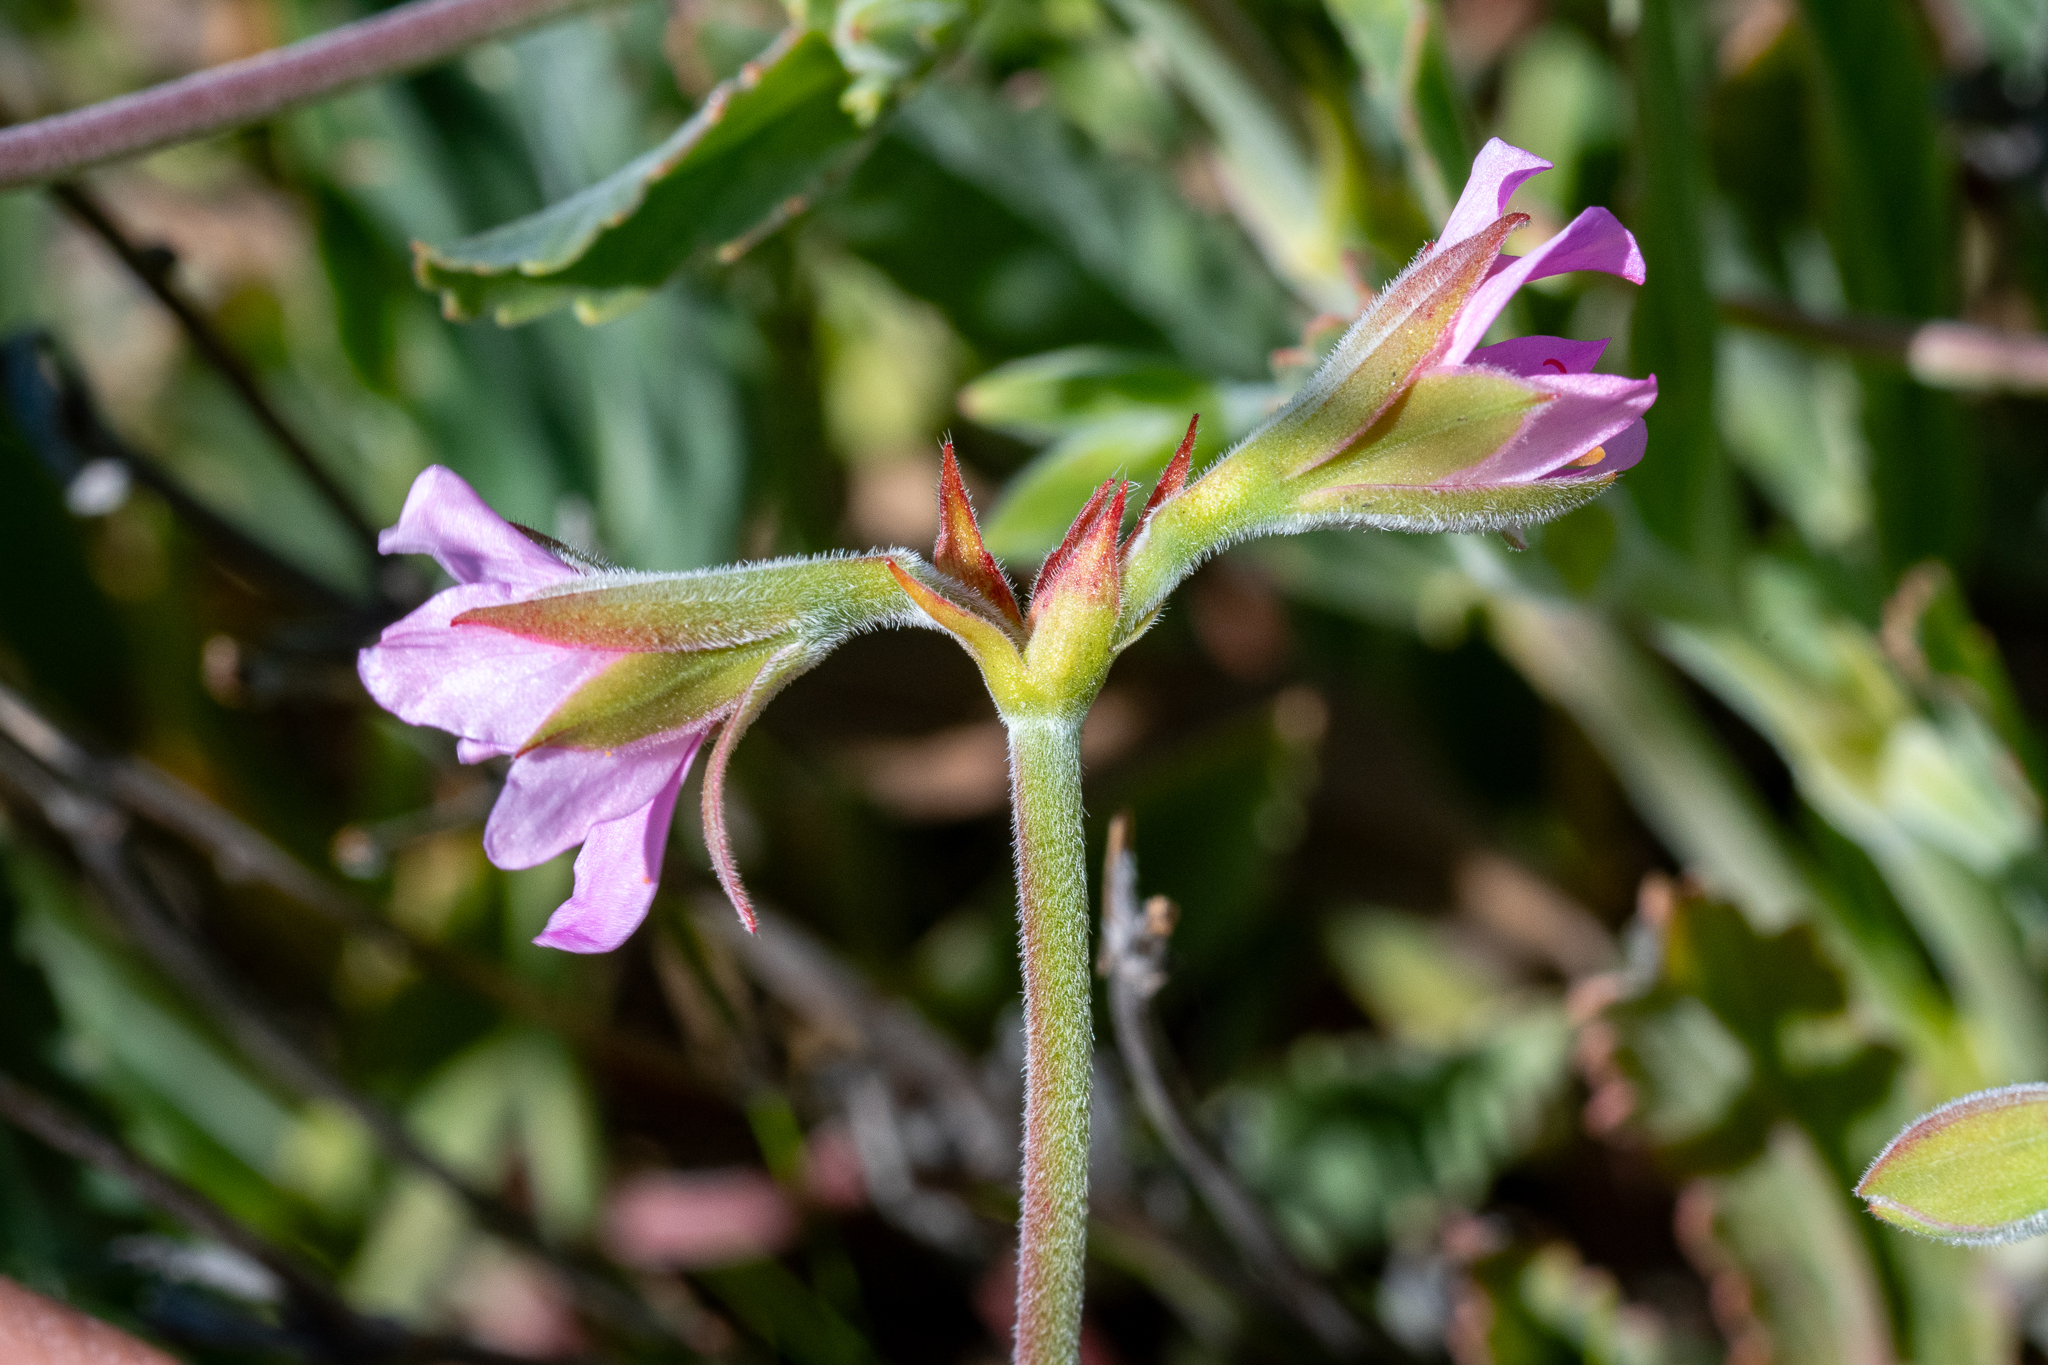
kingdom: Plantae
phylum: Tracheophyta
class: Magnoliopsida
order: Geraniales
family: Geraniaceae
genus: Pelargonium
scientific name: Pelargonium oenothera
